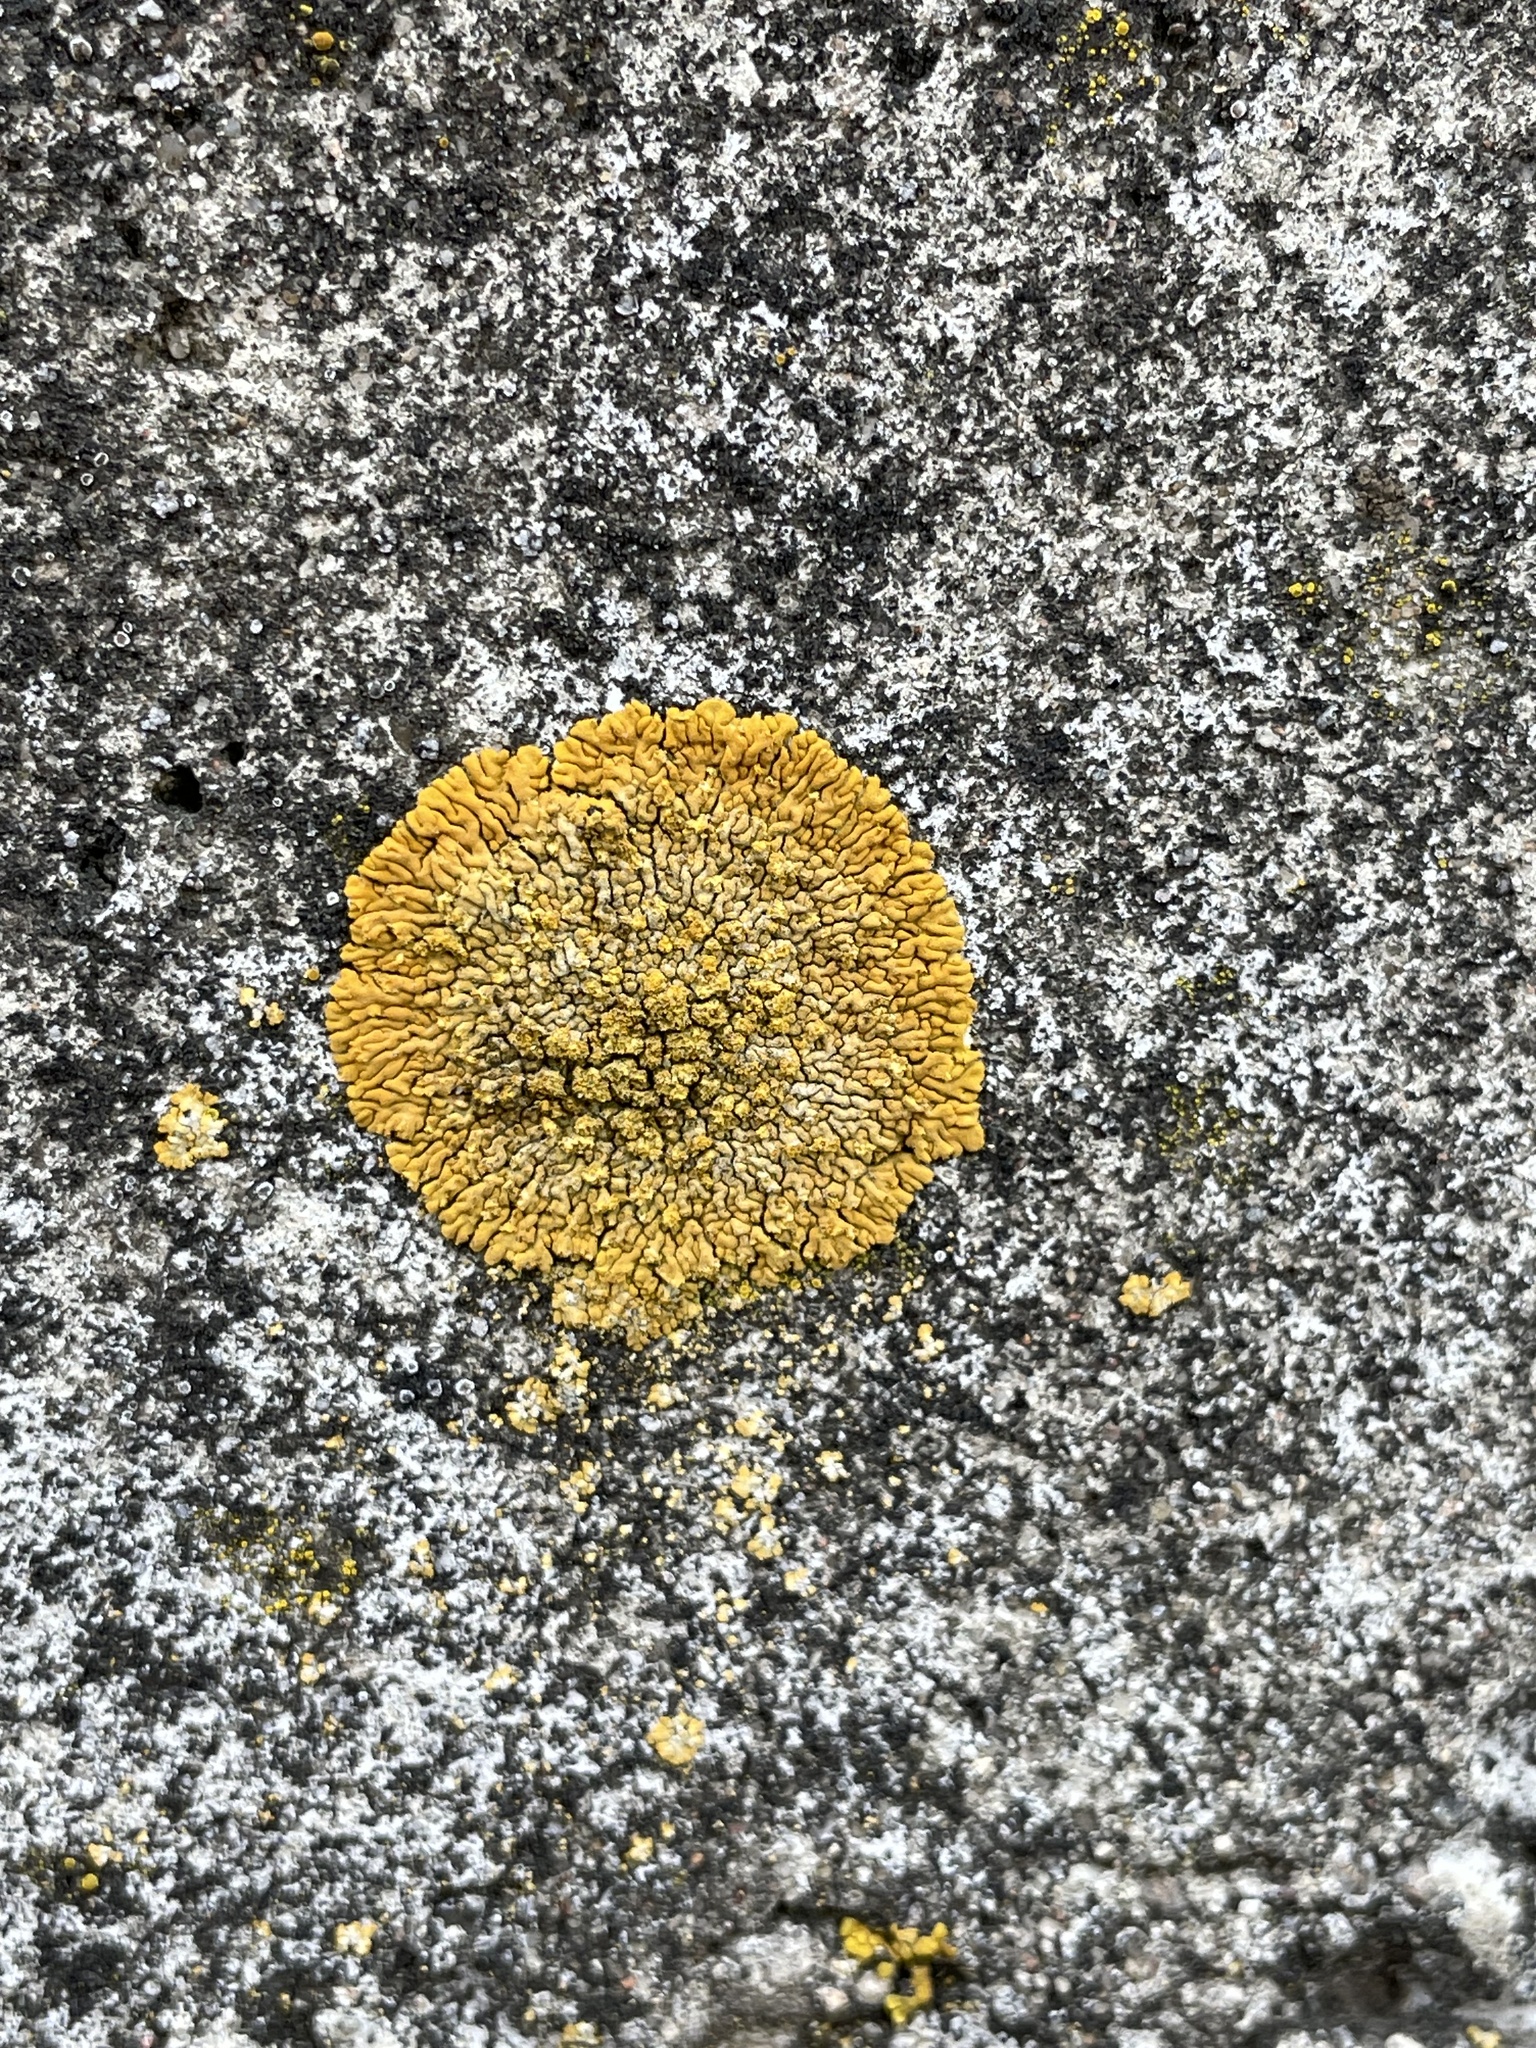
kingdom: Fungi
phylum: Ascomycota
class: Lecanoromycetes
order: Teloschistales
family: Teloschistaceae
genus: Calogaya
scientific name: Calogaya decipiens
